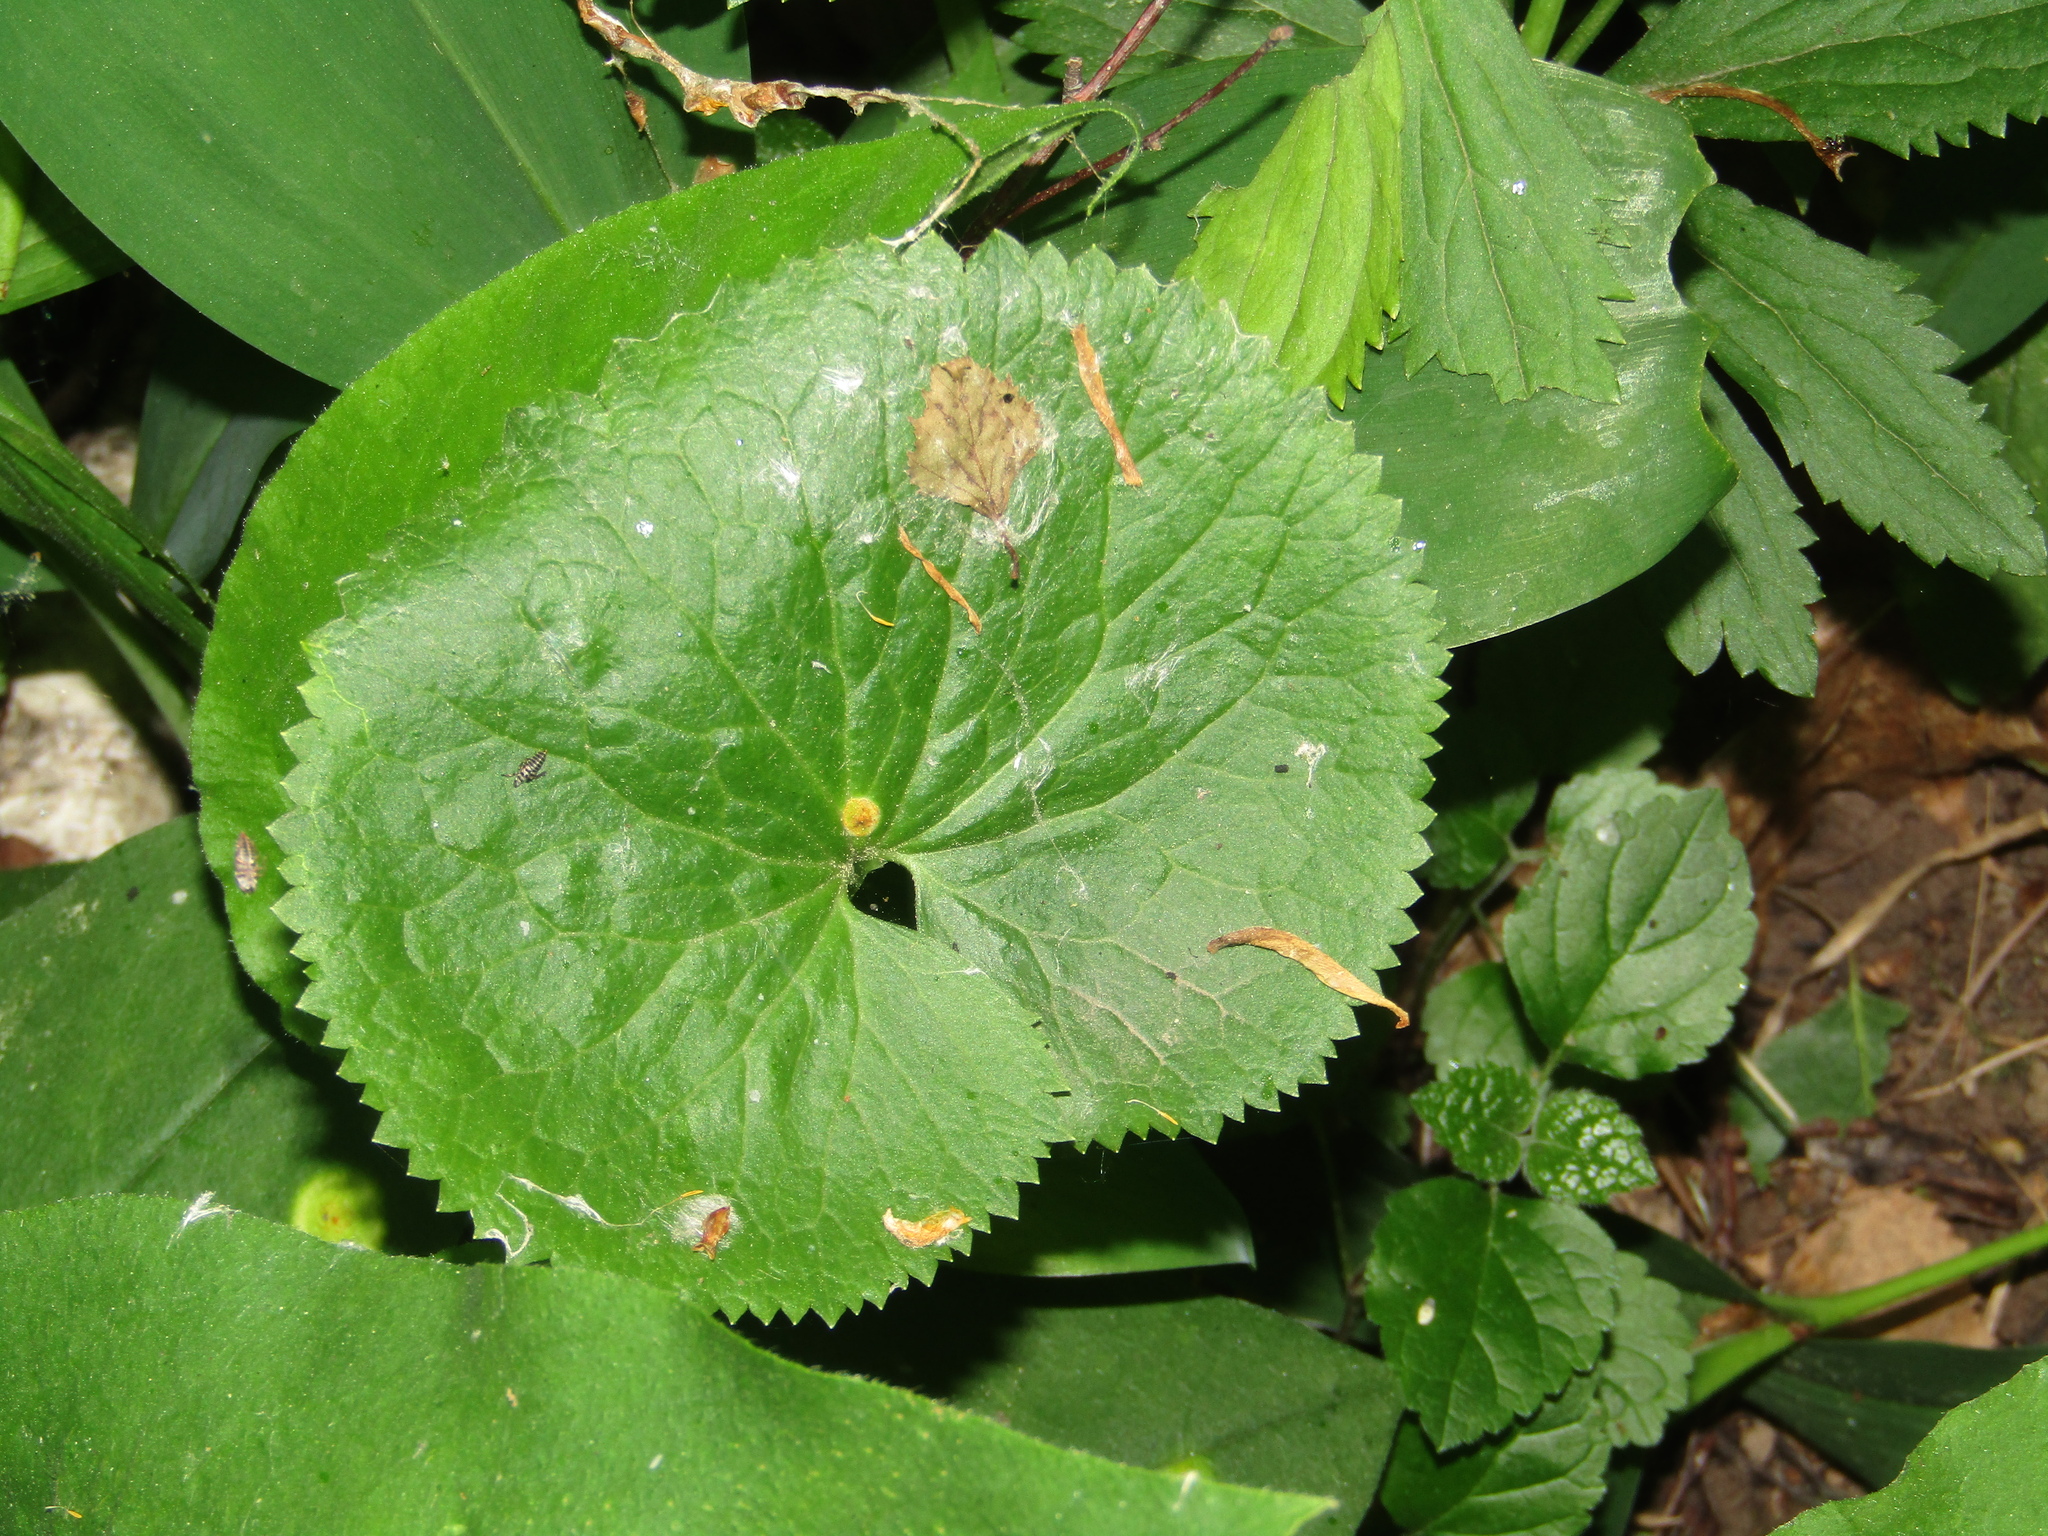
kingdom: Plantae
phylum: Tracheophyta
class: Magnoliopsida
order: Ranunculales
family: Ranunculaceae
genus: Ranunculus
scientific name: Ranunculus cassubicus
